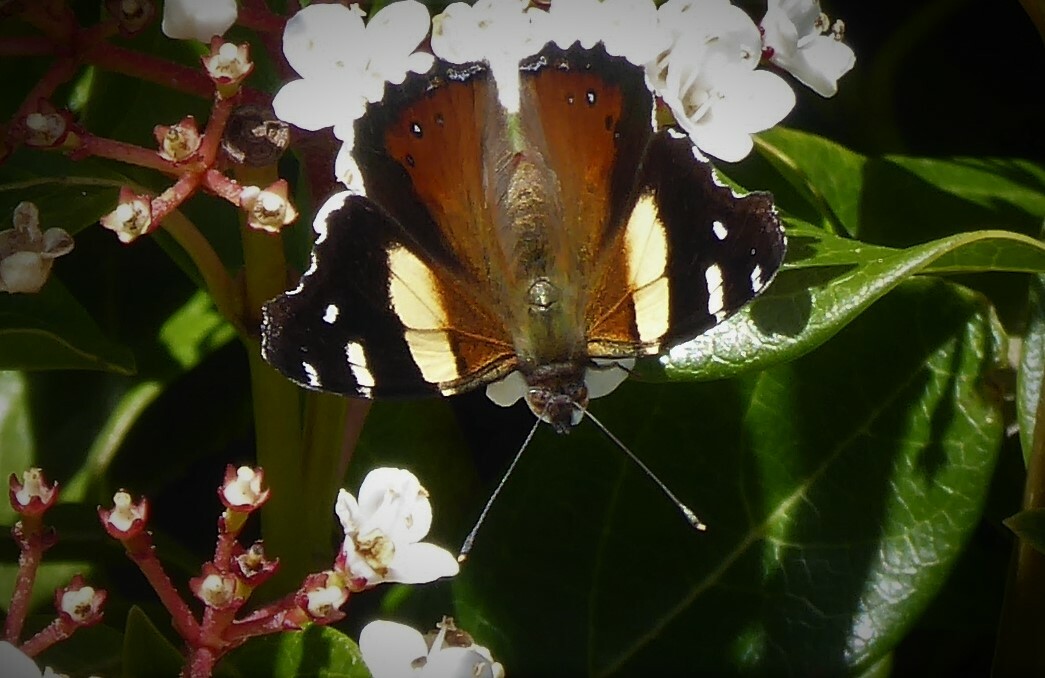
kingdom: Animalia
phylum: Arthropoda
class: Insecta
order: Lepidoptera
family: Nymphalidae
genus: Vanessa
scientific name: Vanessa itea
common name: Yellow admiral
